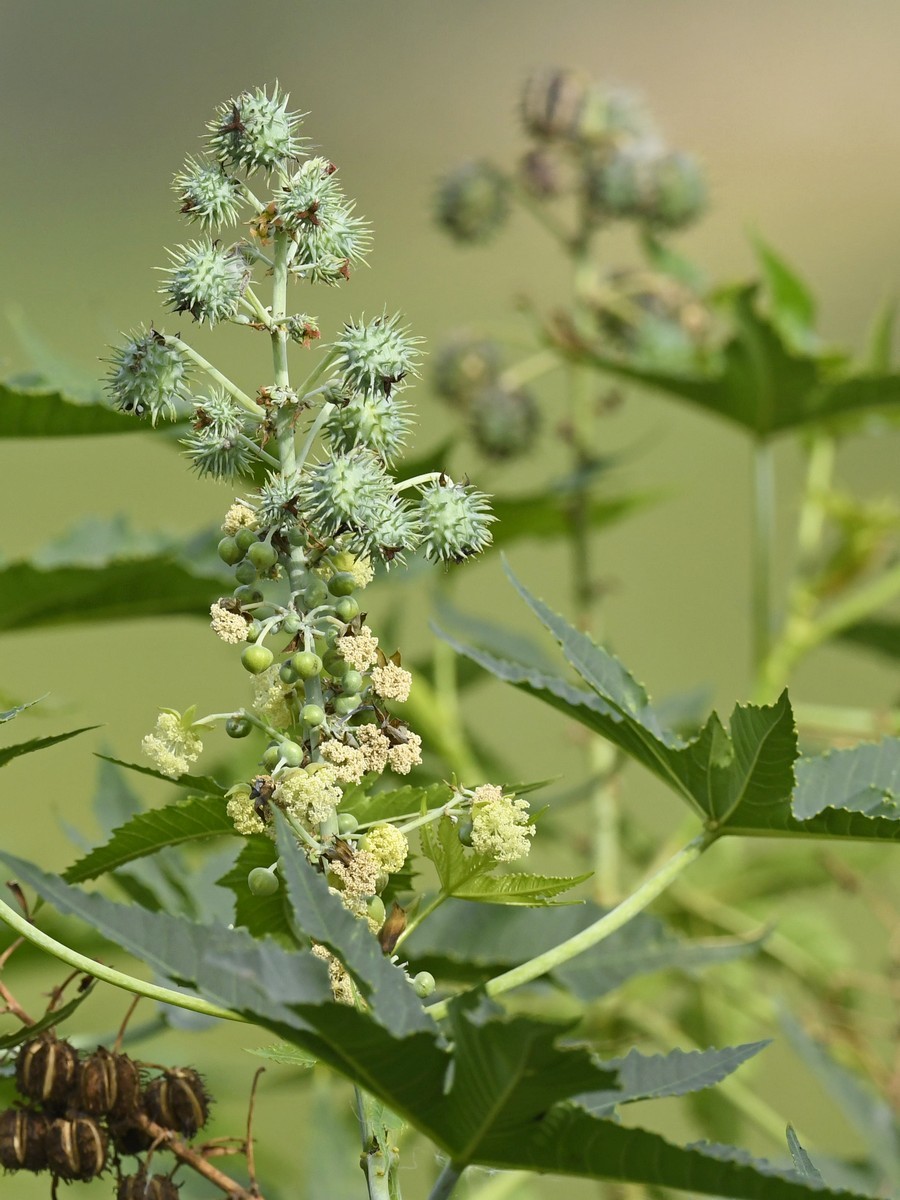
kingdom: Plantae
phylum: Tracheophyta
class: Magnoliopsida
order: Malpighiales
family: Euphorbiaceae
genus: Ricinus
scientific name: Ricinus communis
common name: Castor-oil-plant
